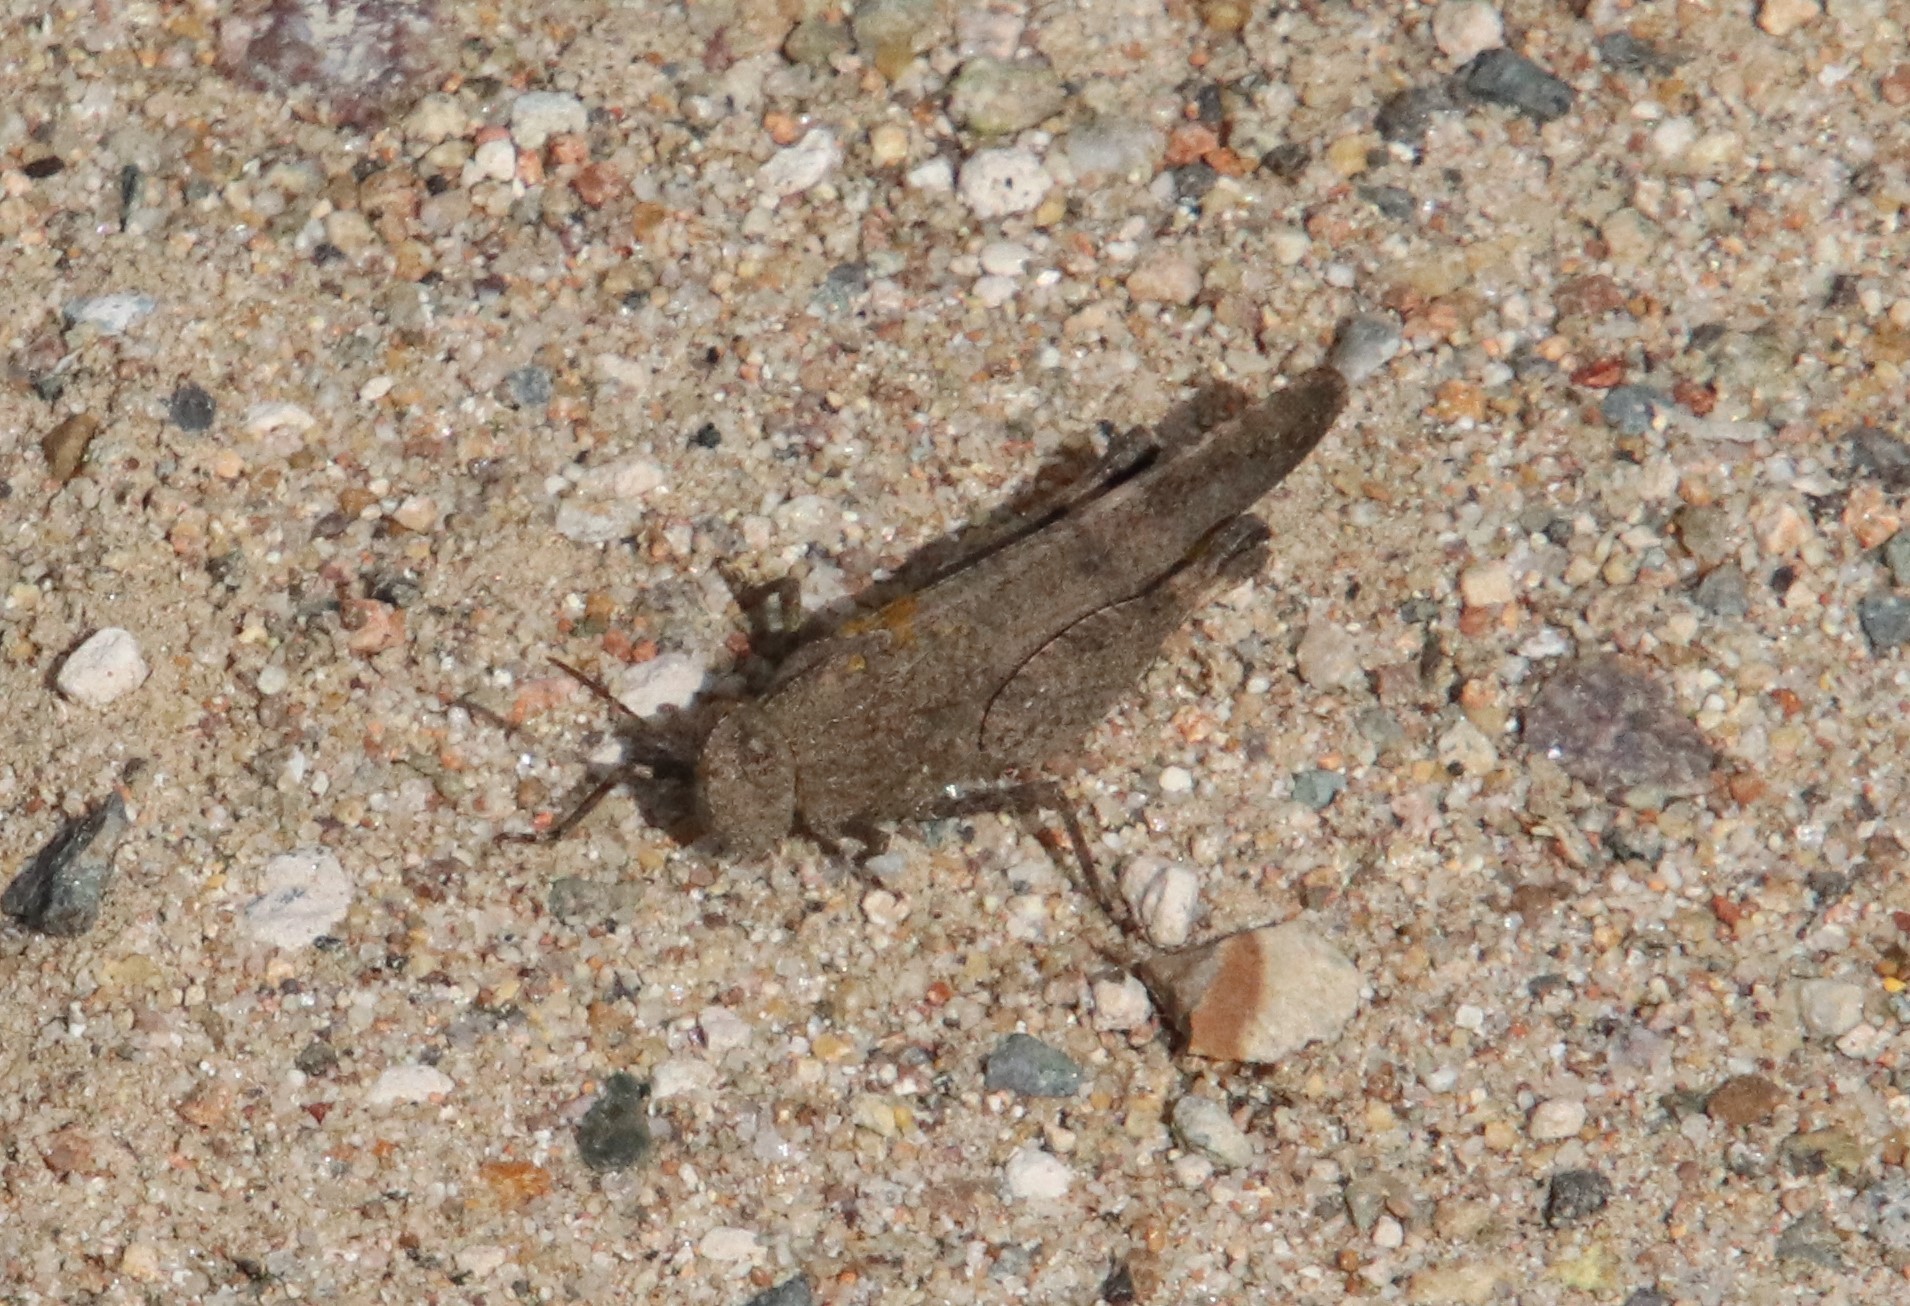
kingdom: Animalia
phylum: Arthropoda
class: Insecta
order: Orthoptera
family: Acrididae
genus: Lactista
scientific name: Lactista gibbosus
